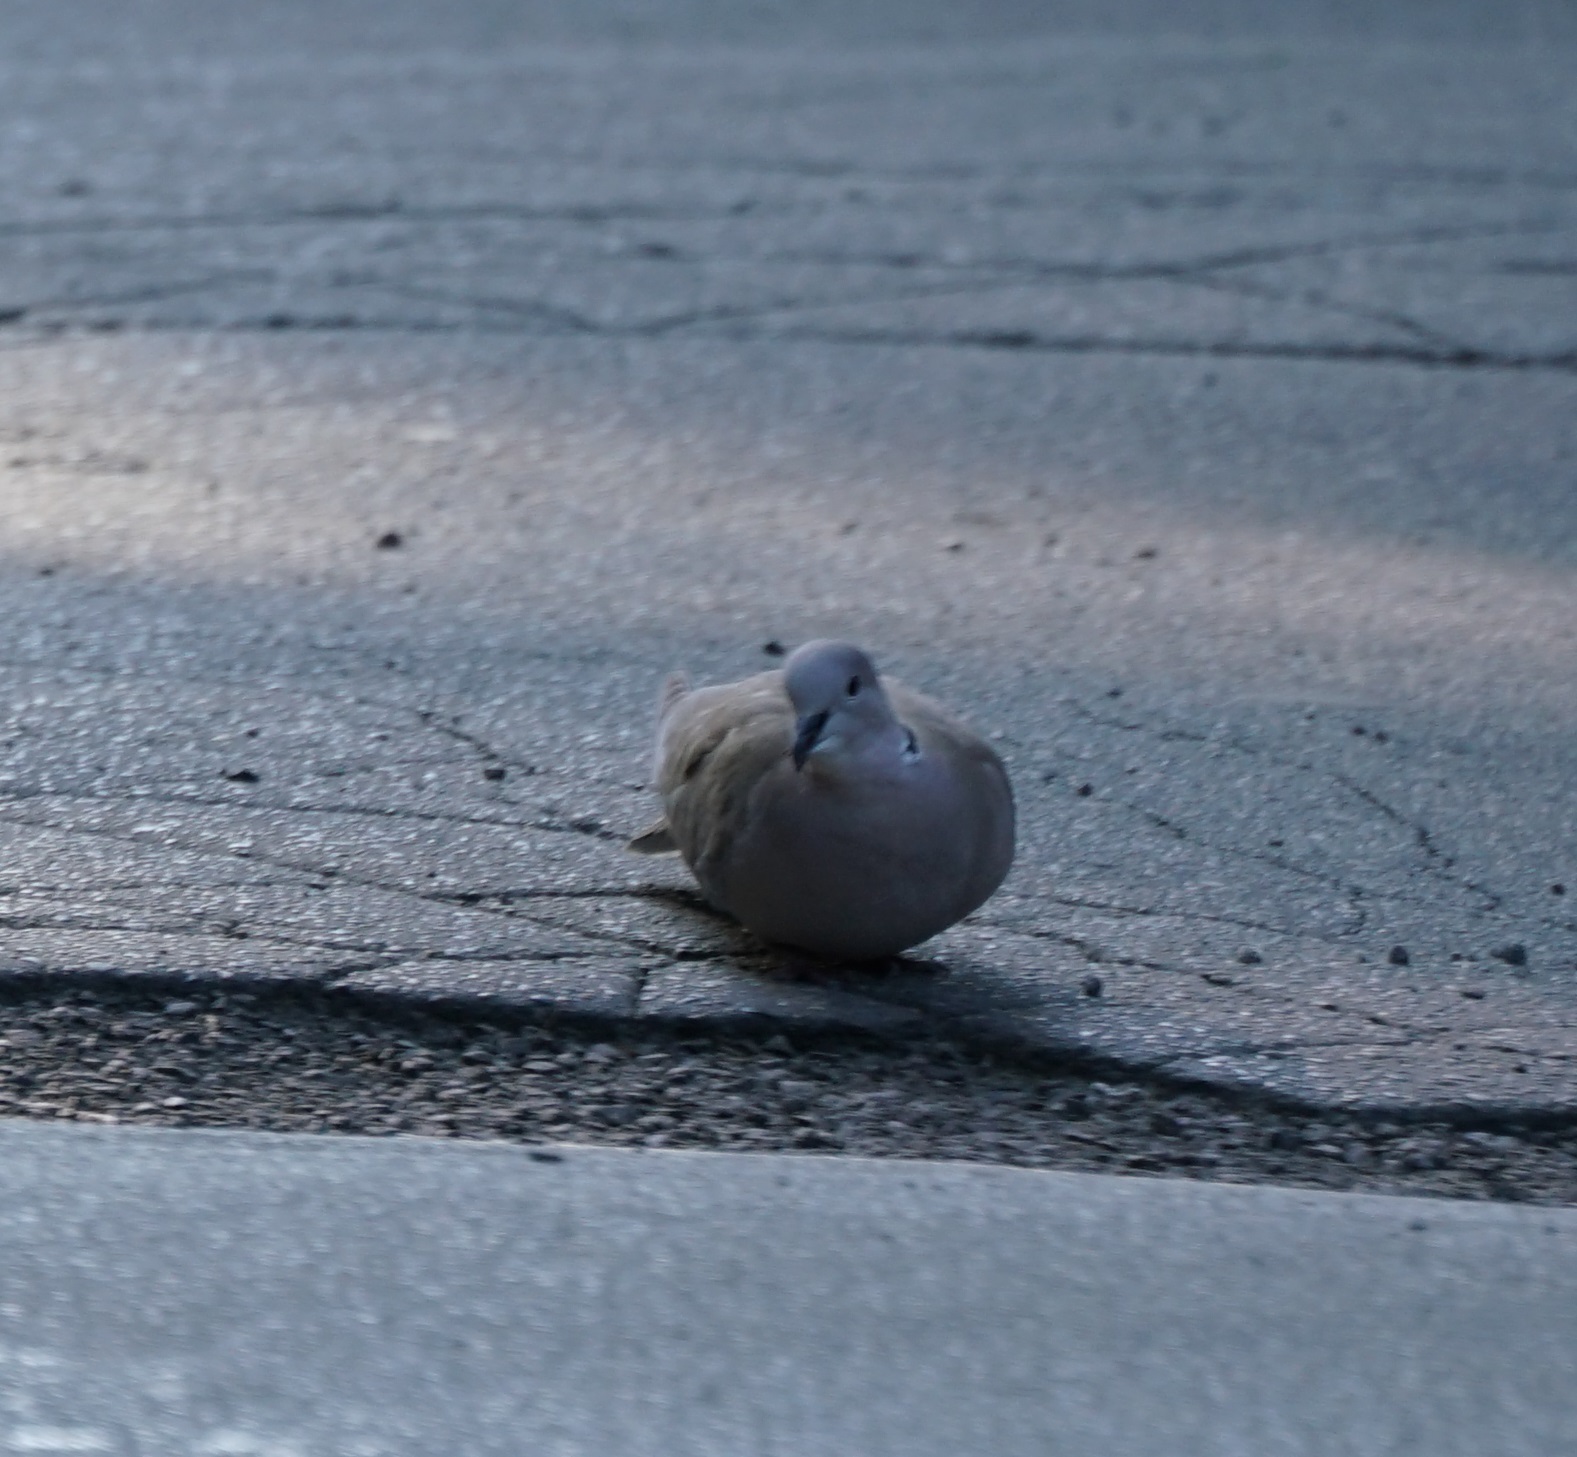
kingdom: Animalia
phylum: Chordata
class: Aves
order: Columbiformes
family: Columbidae
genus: Streptopelia
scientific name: Streptopelia decaocto
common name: Eurasian collared dove
